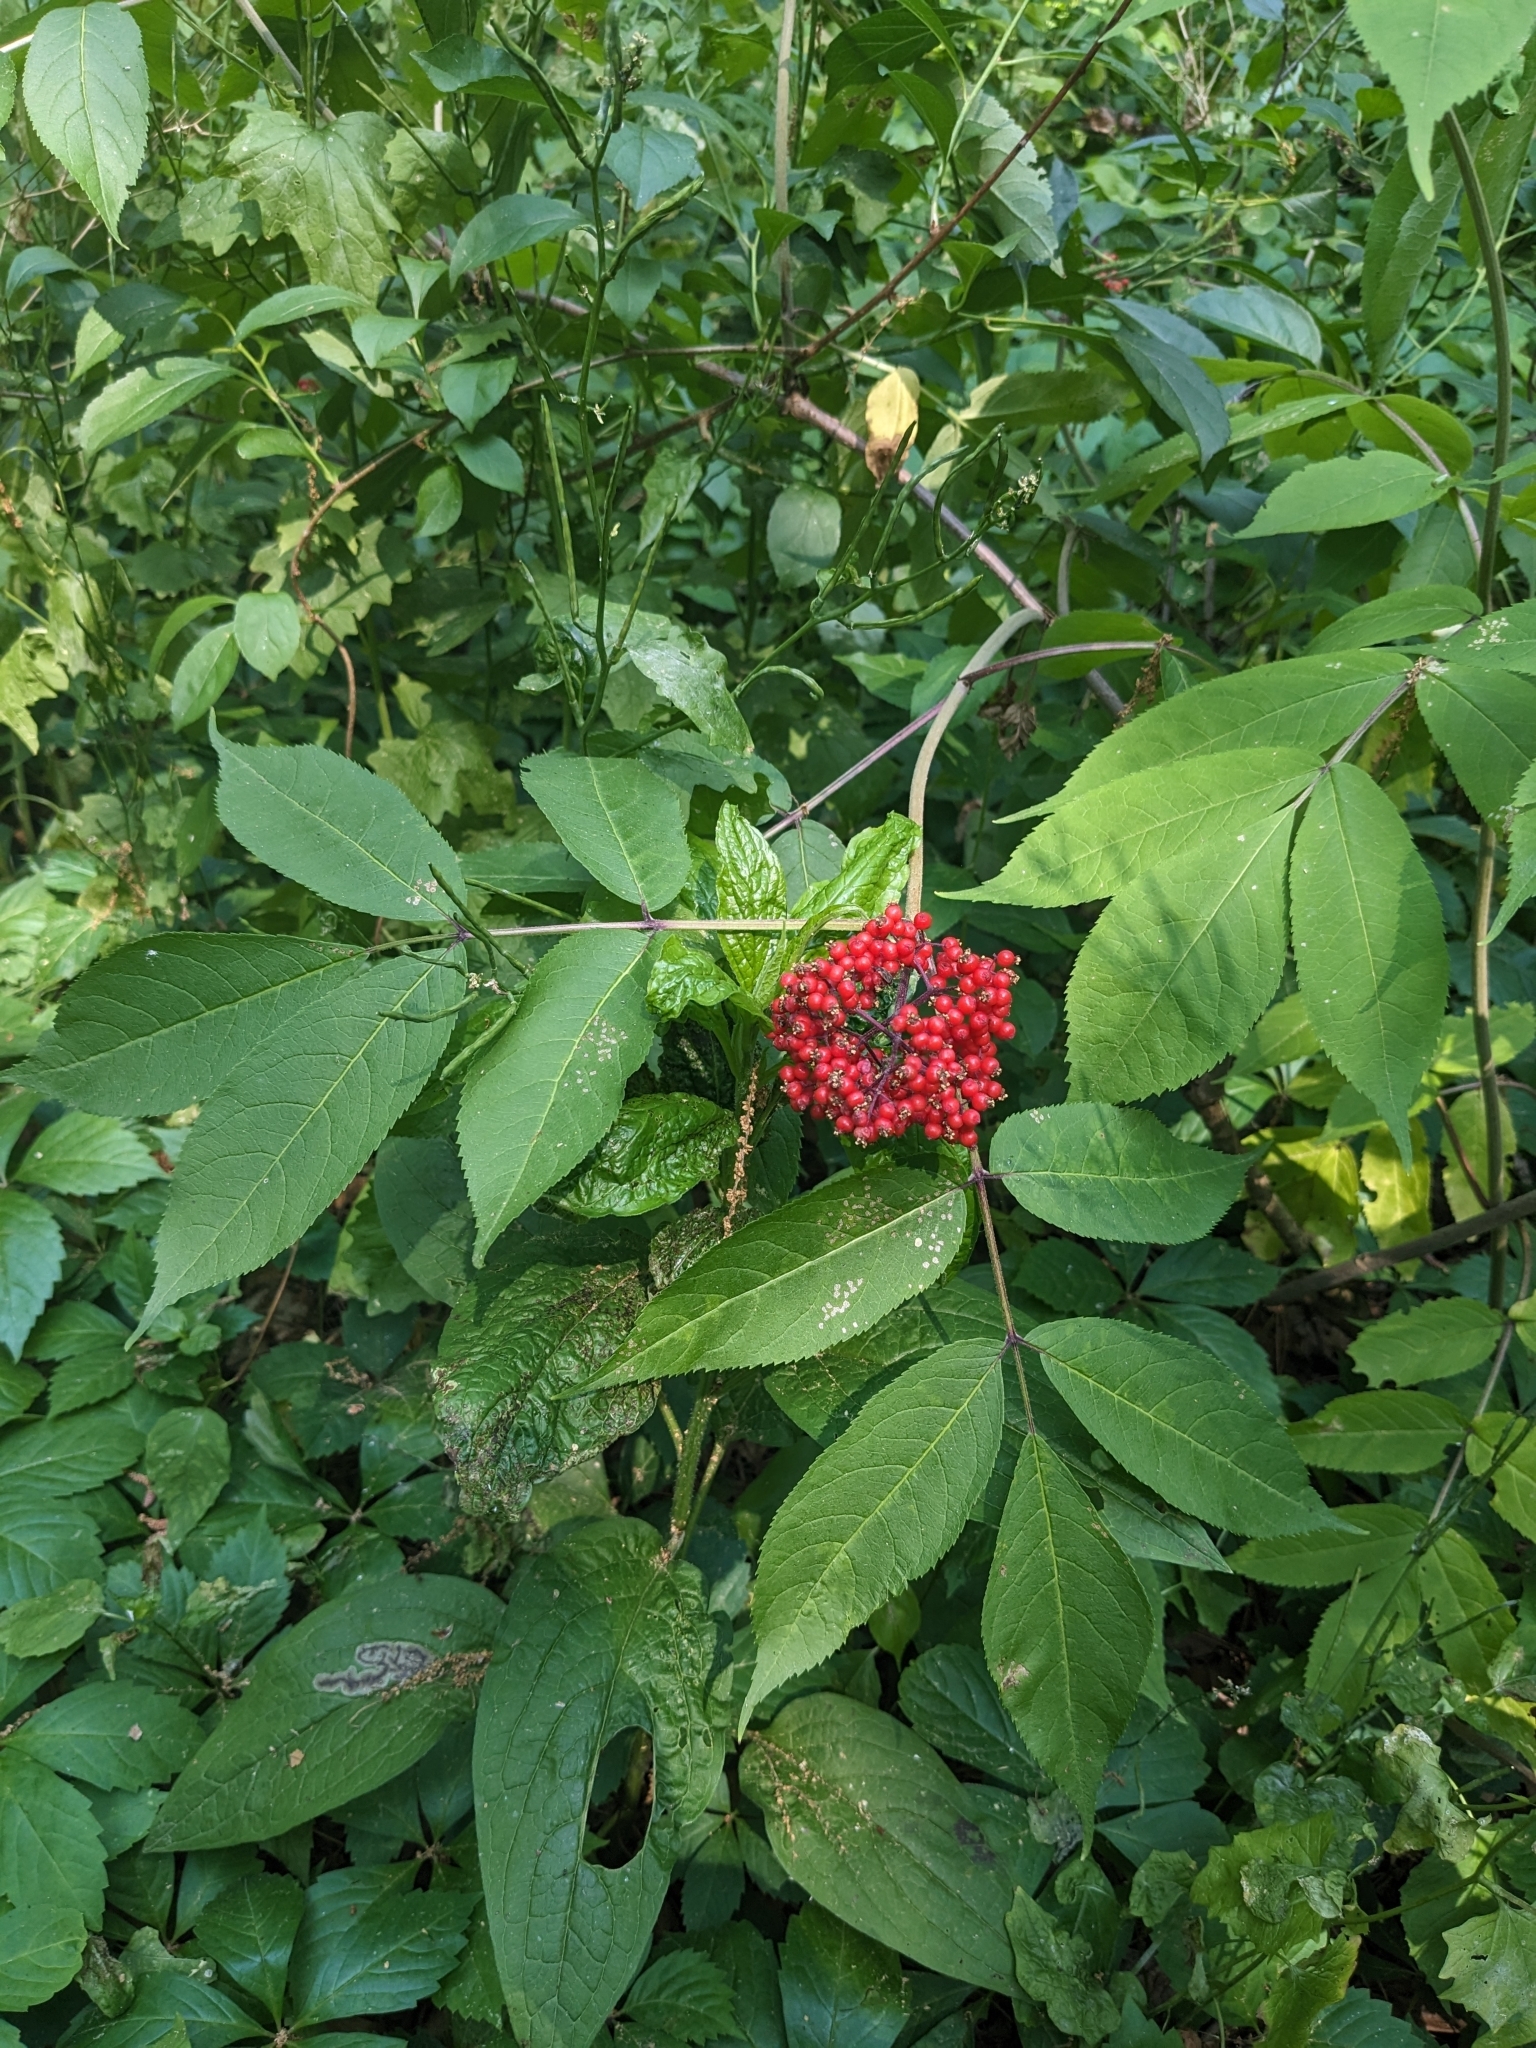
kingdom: Plantae
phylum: Tracheophyta
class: Magnoliopsida
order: Dipsacales
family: Viburnaceae
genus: Sambucus
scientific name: Sambucus racemosa
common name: Red-berried elder
